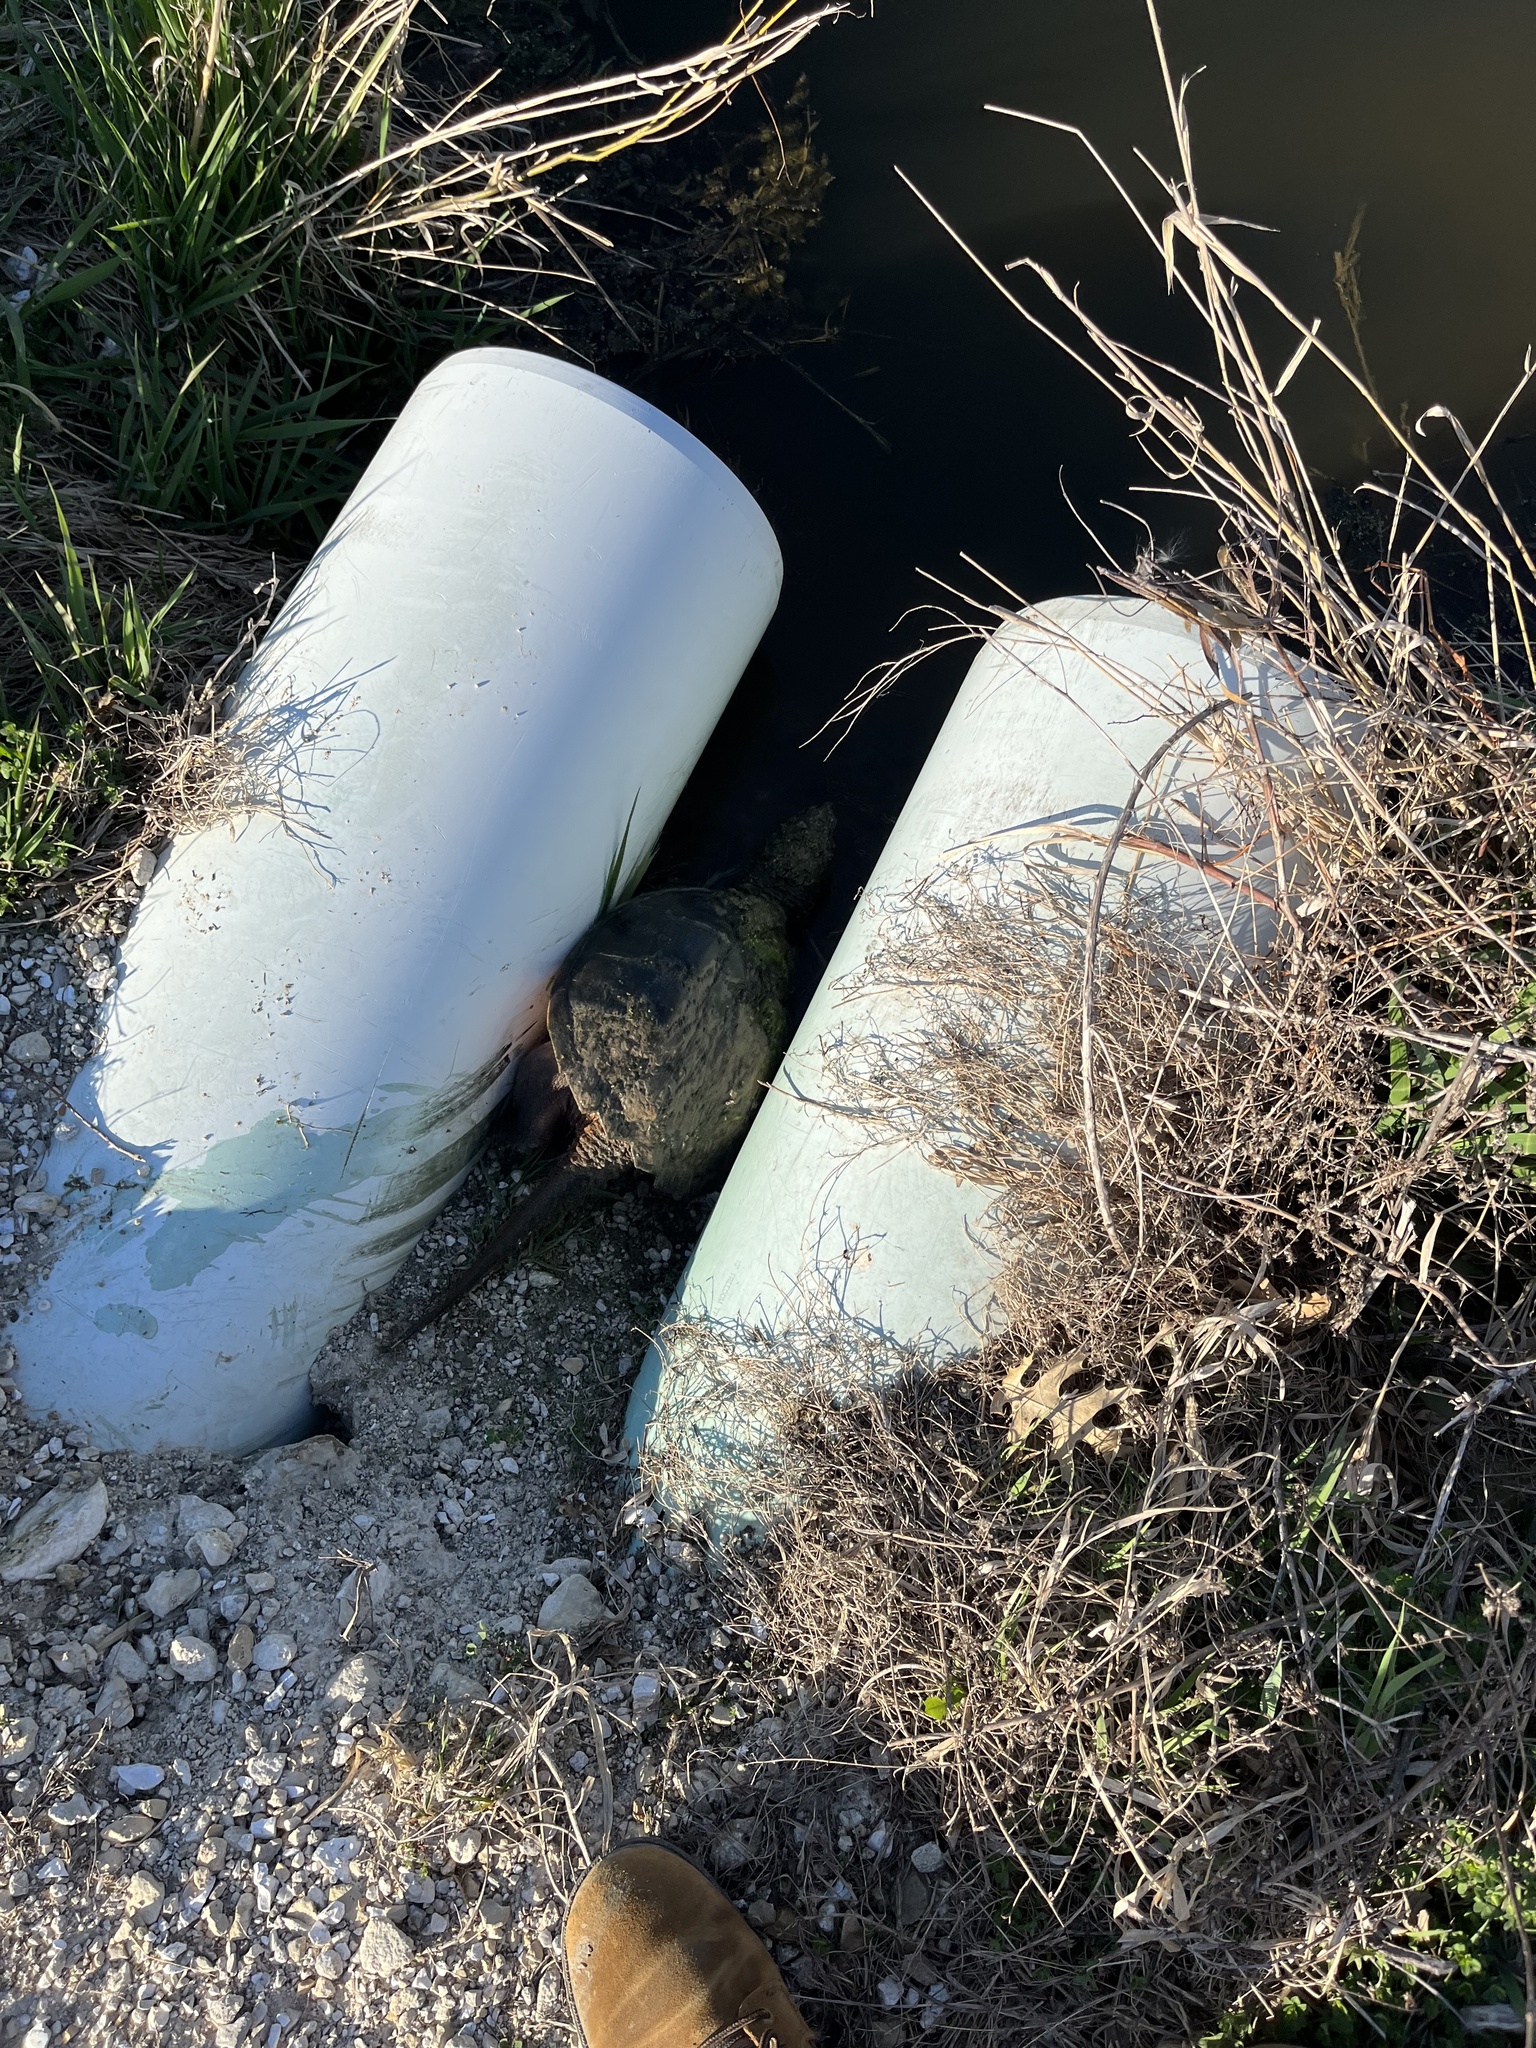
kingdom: Animalia
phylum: Chordata
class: Testudines
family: Chelydridae
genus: Chelydra
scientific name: Chelydra serpentina
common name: Common snapping turtle
